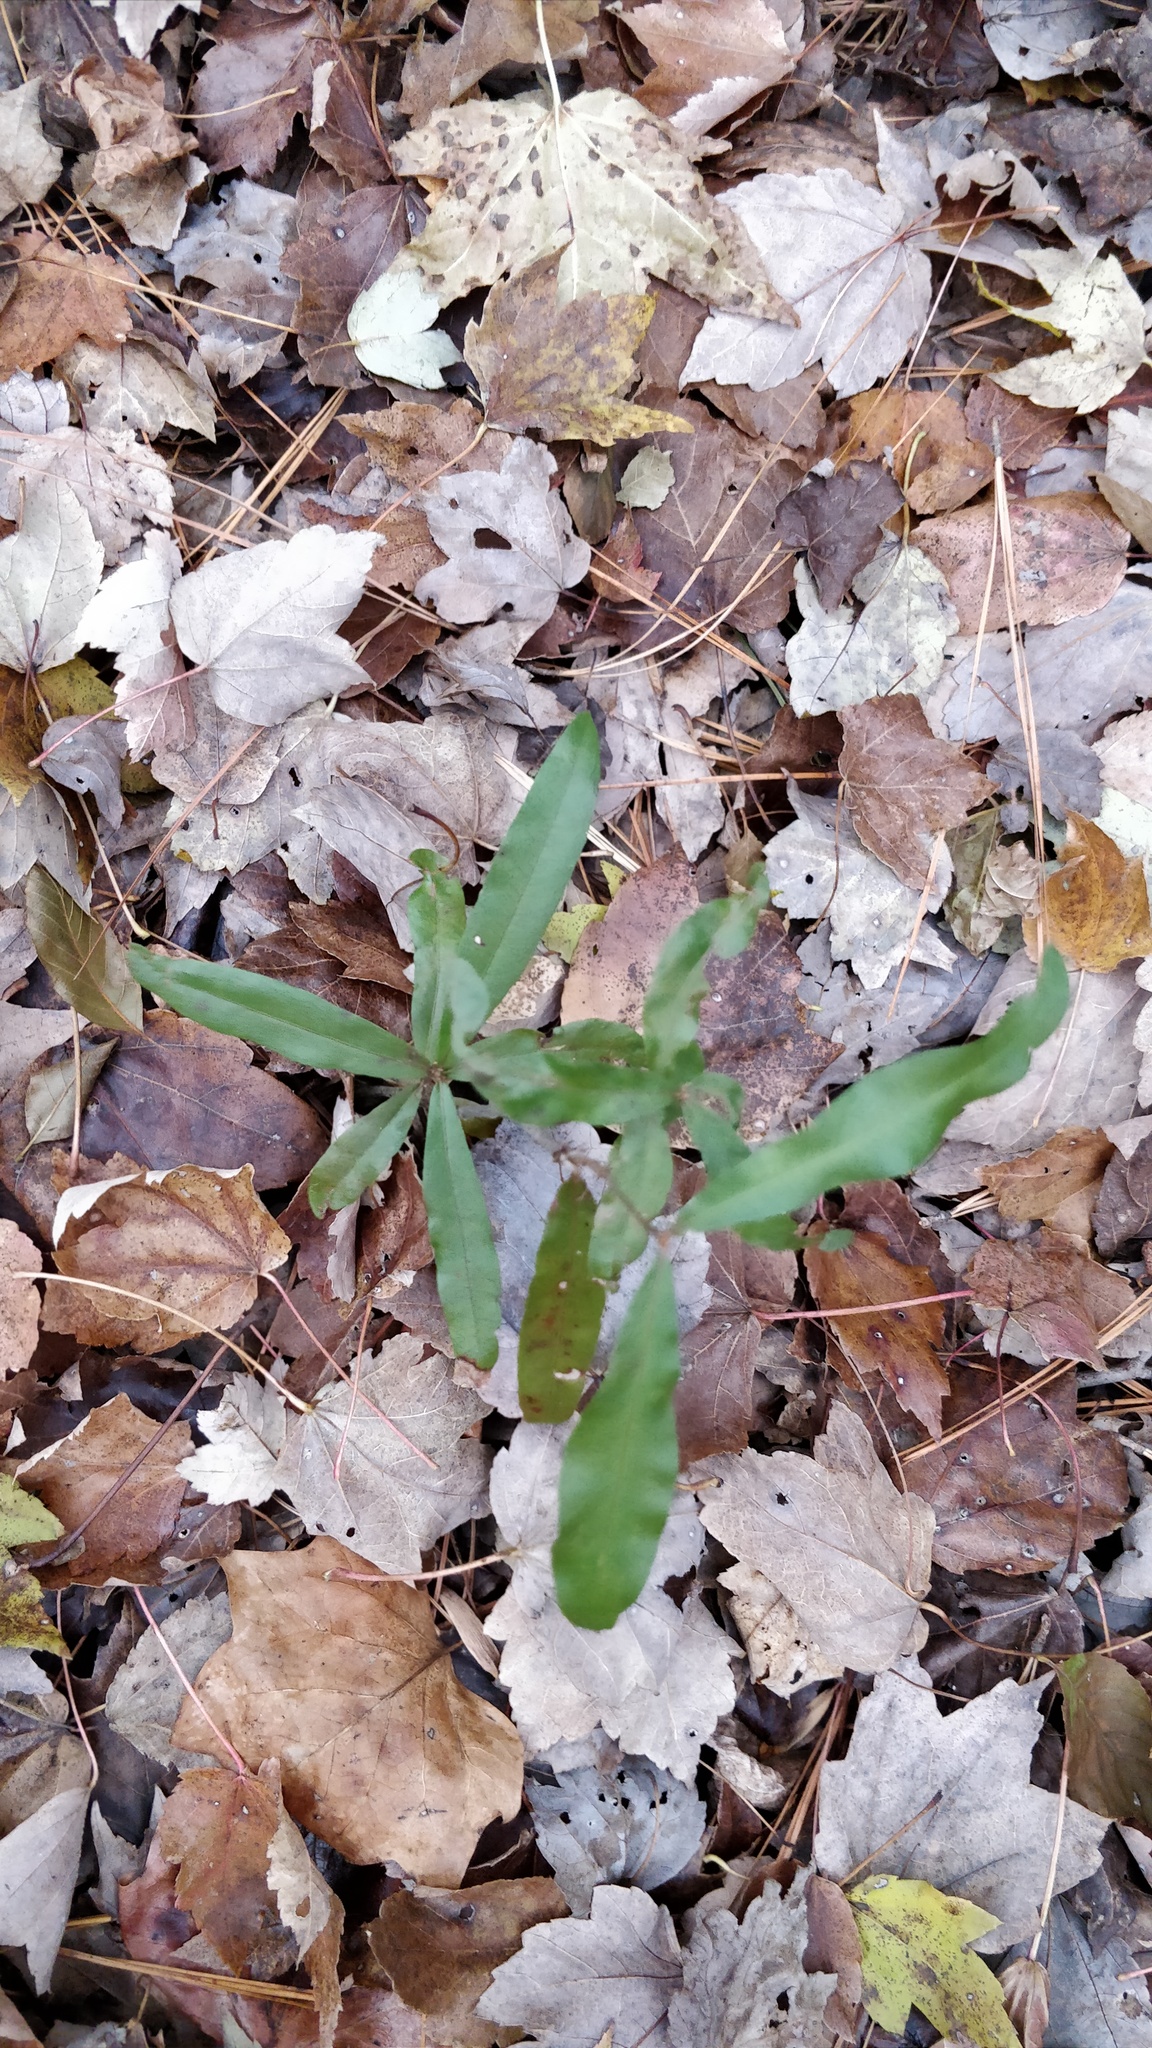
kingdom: Plantae
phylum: Tracheophyta
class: Magnoliopsida
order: Fagales
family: Fagaceae
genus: Quercus
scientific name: Quercus phellos
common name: Willow oak
